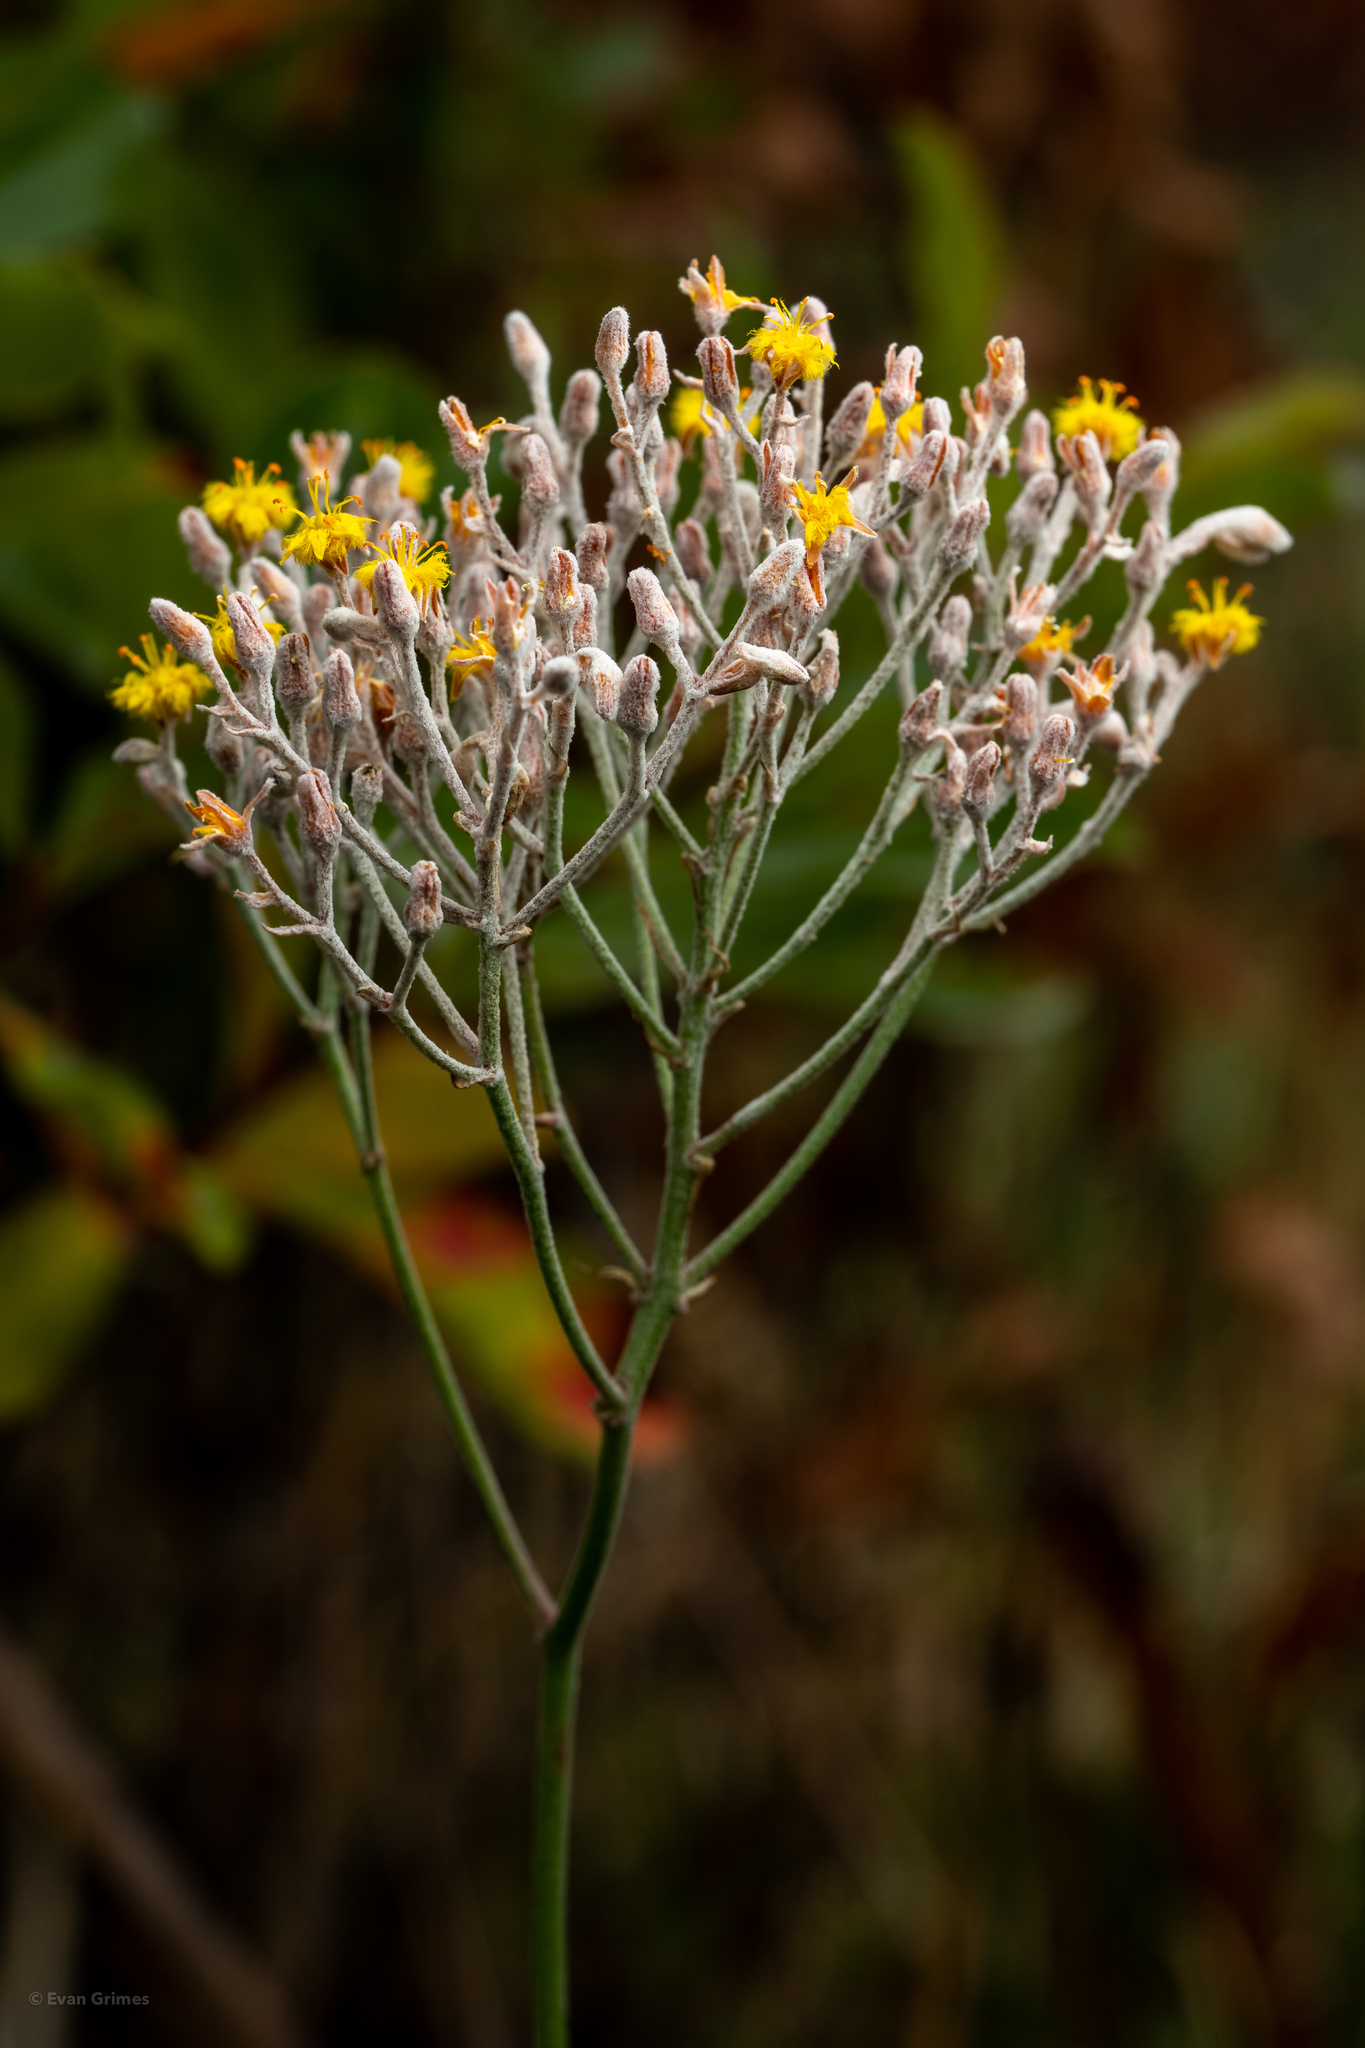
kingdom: Plantae
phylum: Tracheophyta
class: Liliopsida
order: Dioscoreales
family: Nartheciaceae
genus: Lophiola
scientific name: Lophiola aurea
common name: Golden-crest
